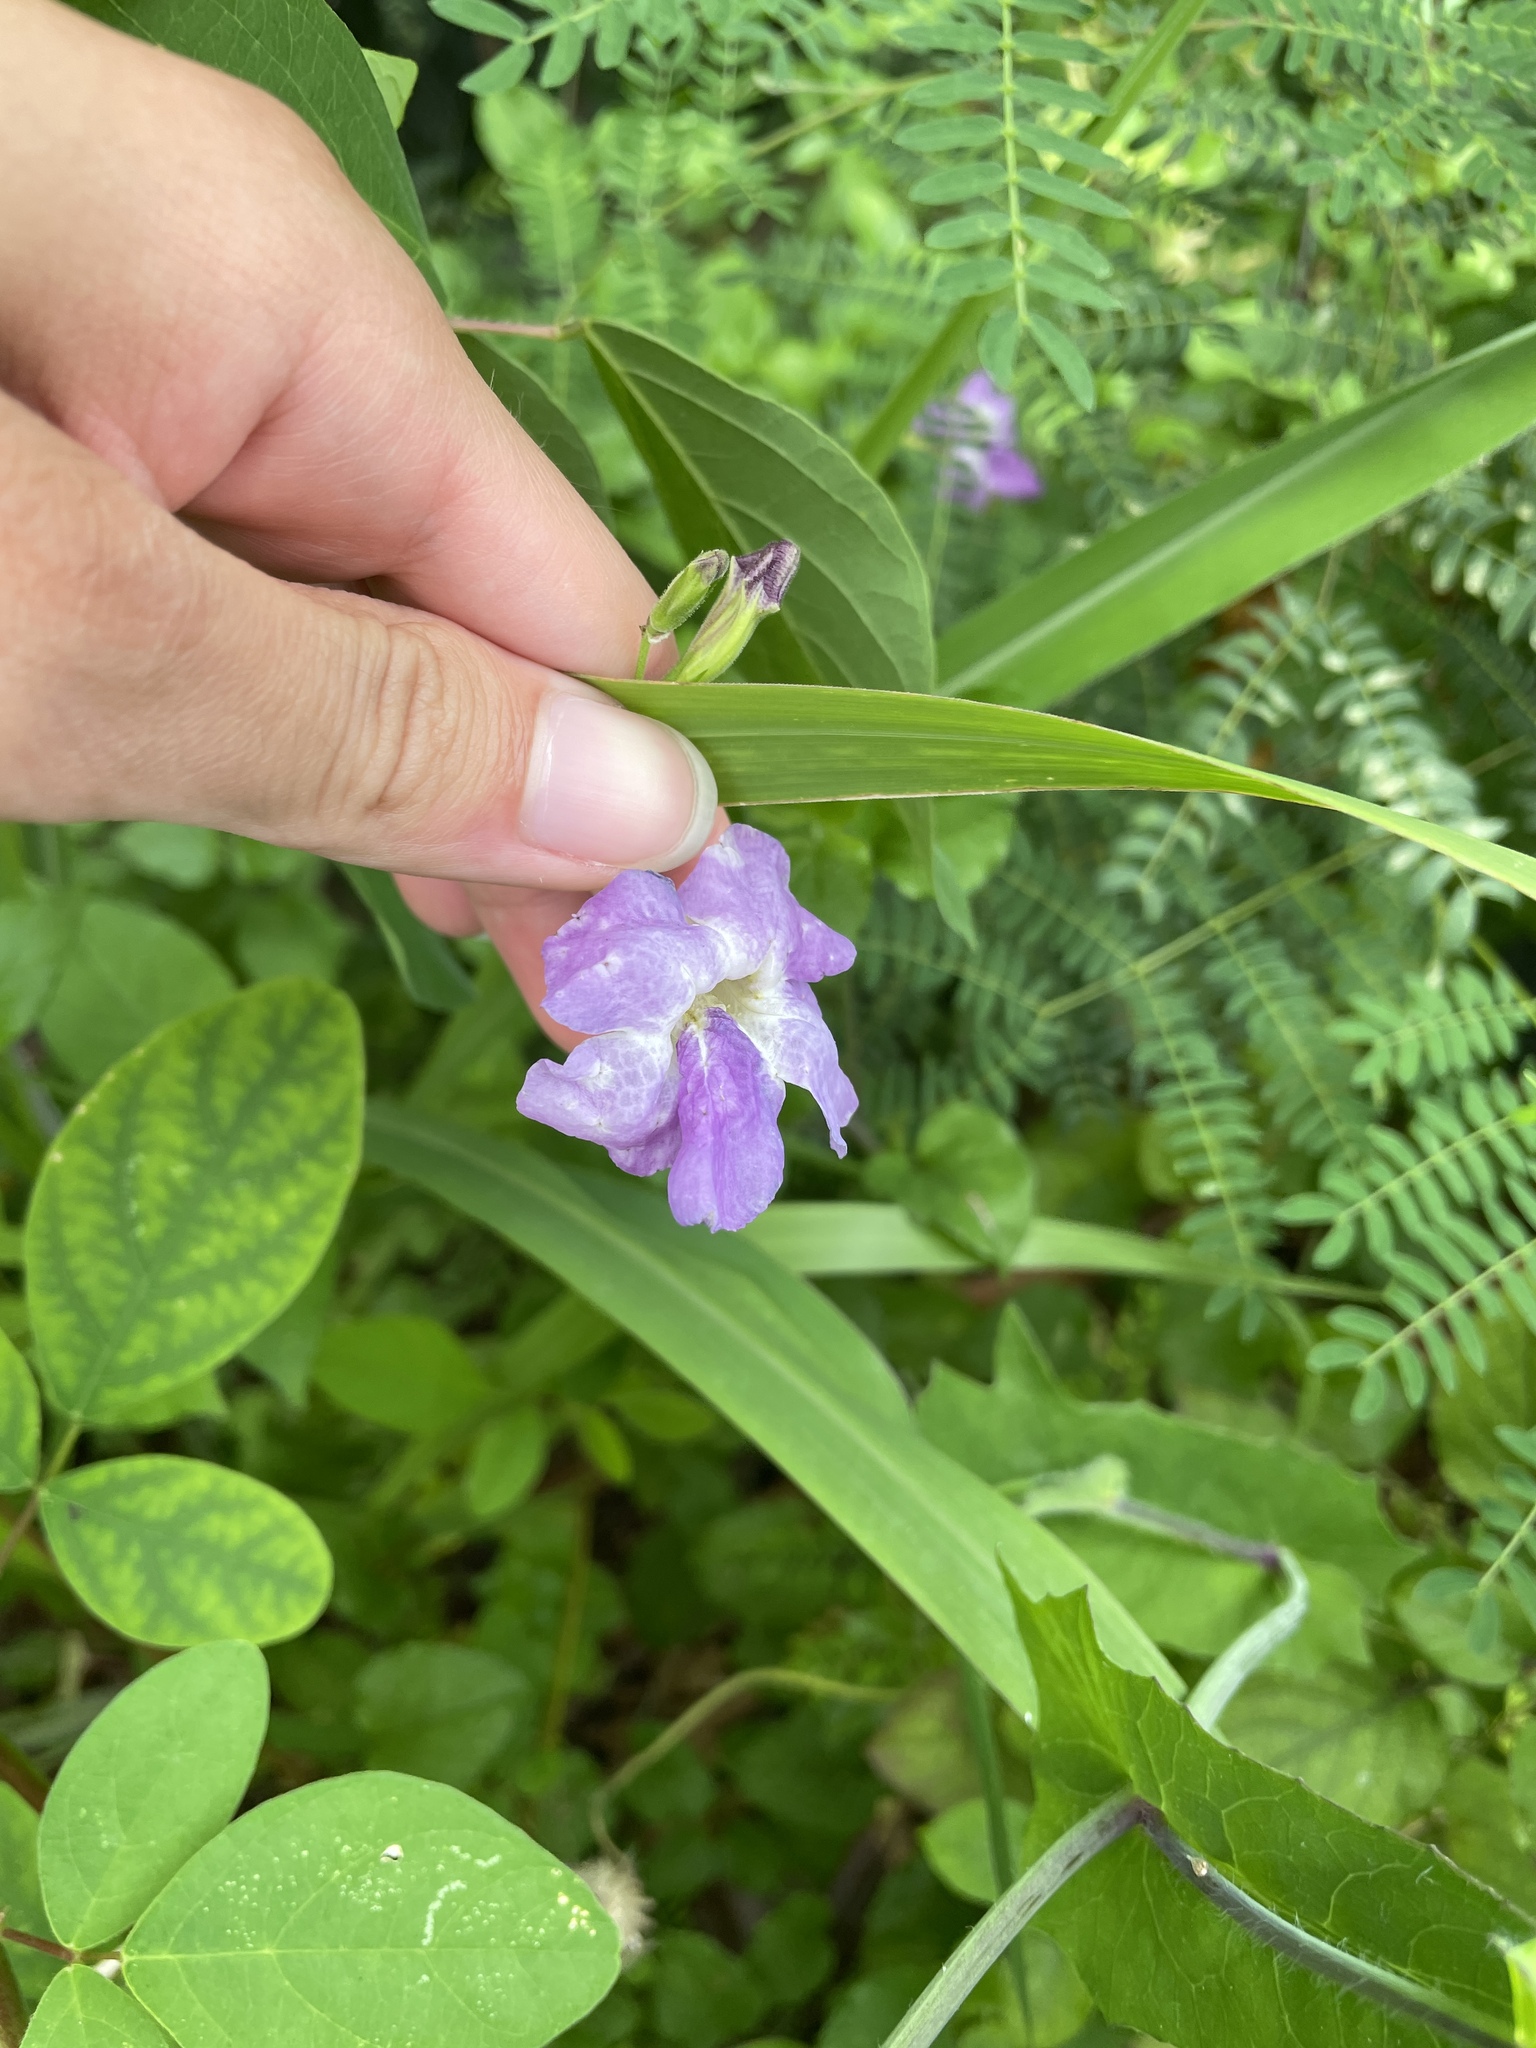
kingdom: Plantae
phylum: Tracheophyta
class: Magnoliopsida
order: Lamiales
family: Acanthaceae
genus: Asystasia
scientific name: Asystasia gangetica
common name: Chinese violet
